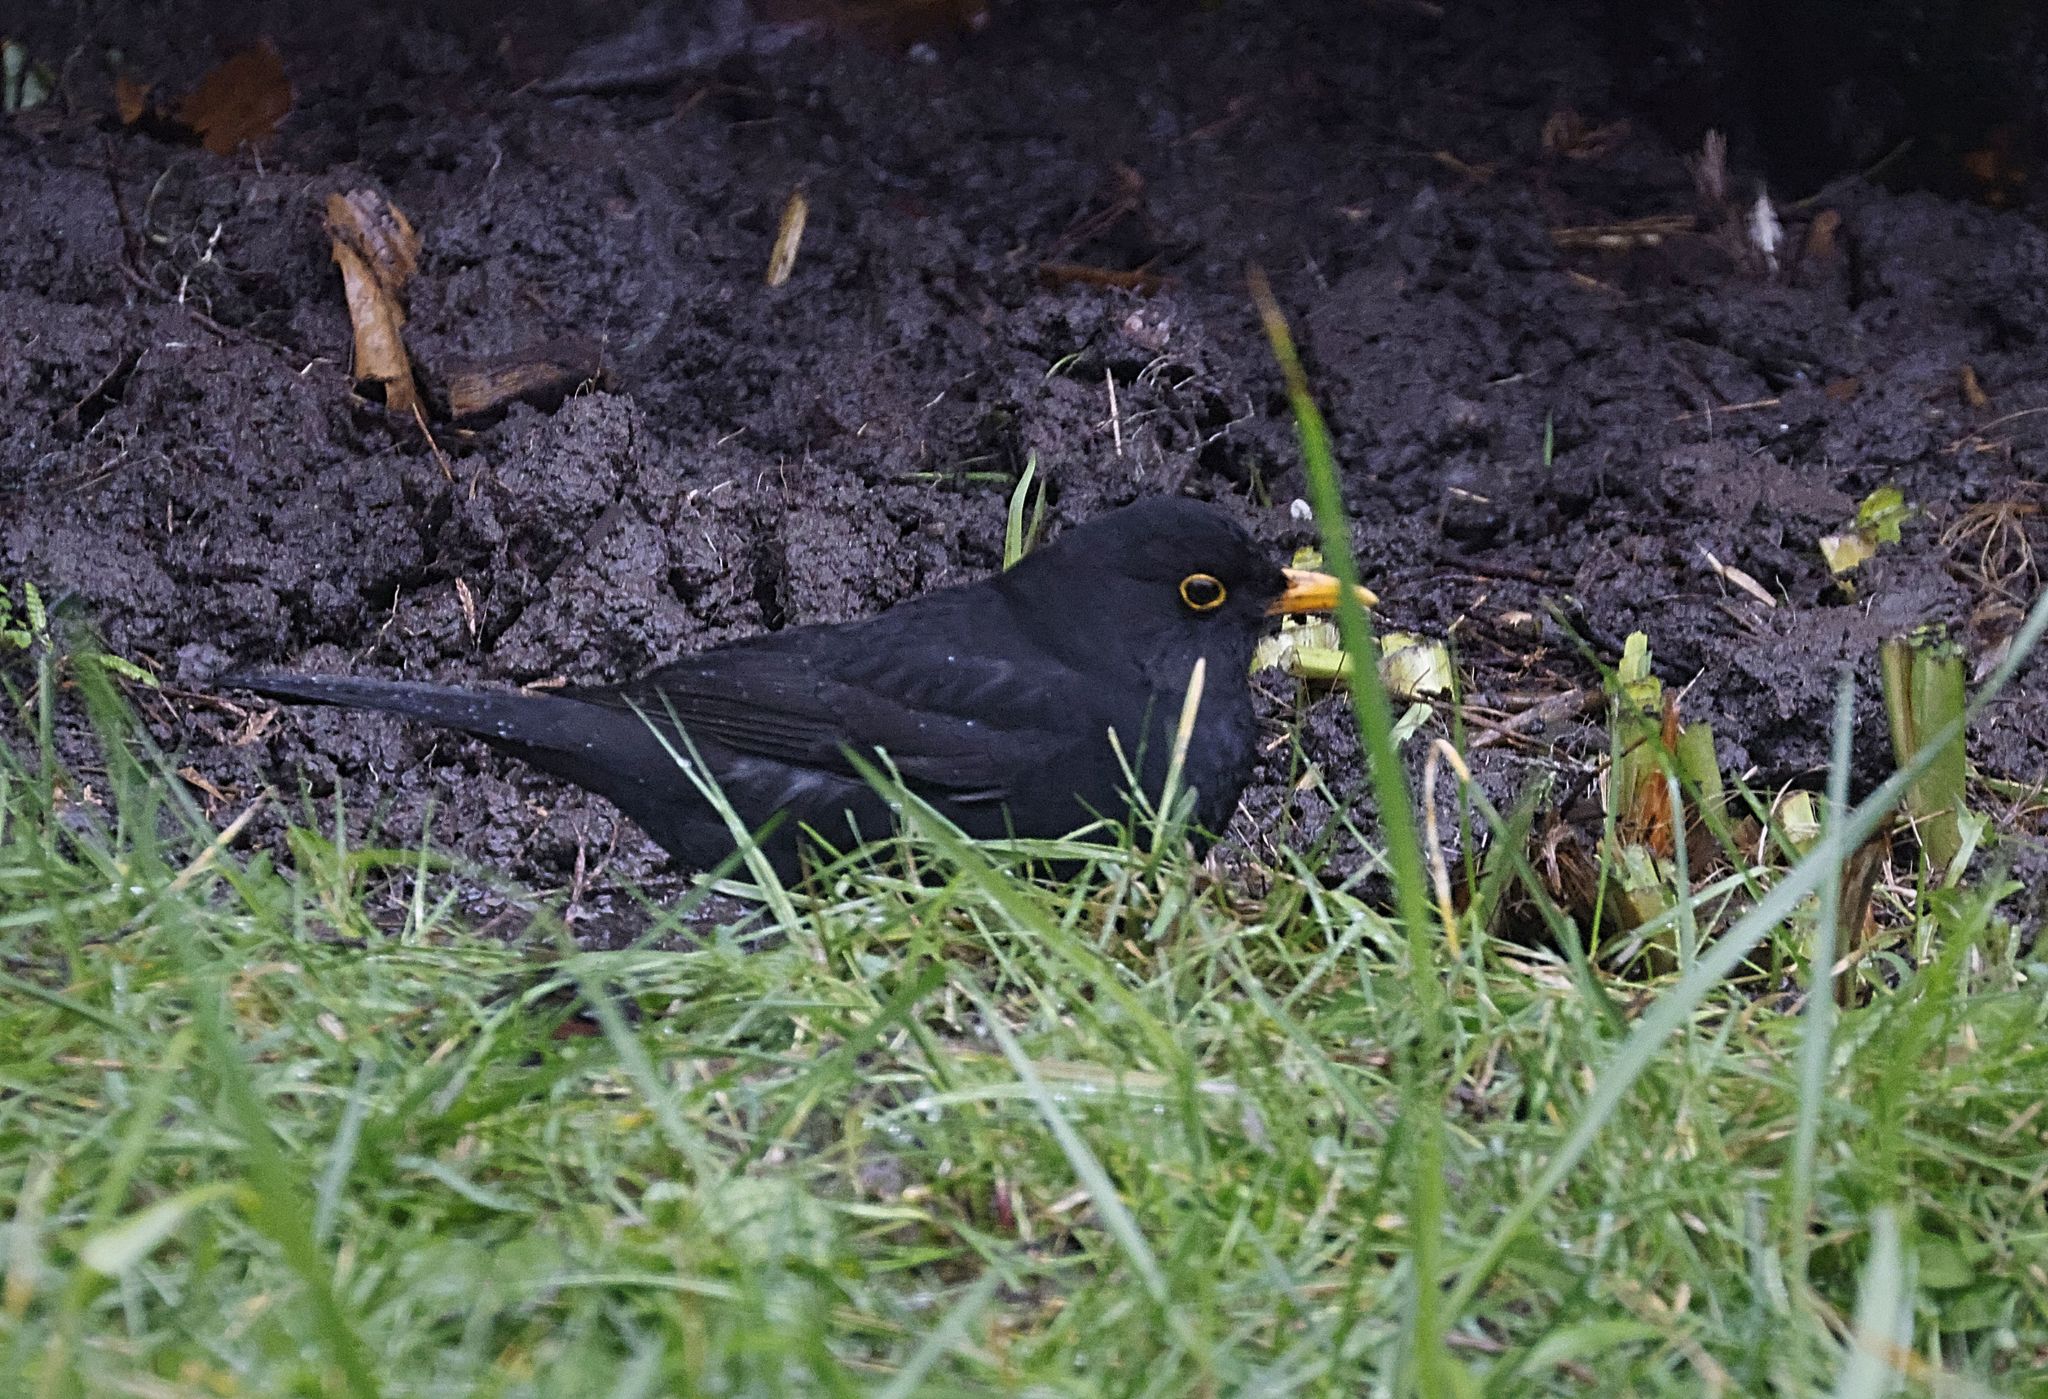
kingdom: Animalia
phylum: Chordata
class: Aves
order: Passeriformes
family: Turdidae
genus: Turdus
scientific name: Turdus merula
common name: Common blackbird
